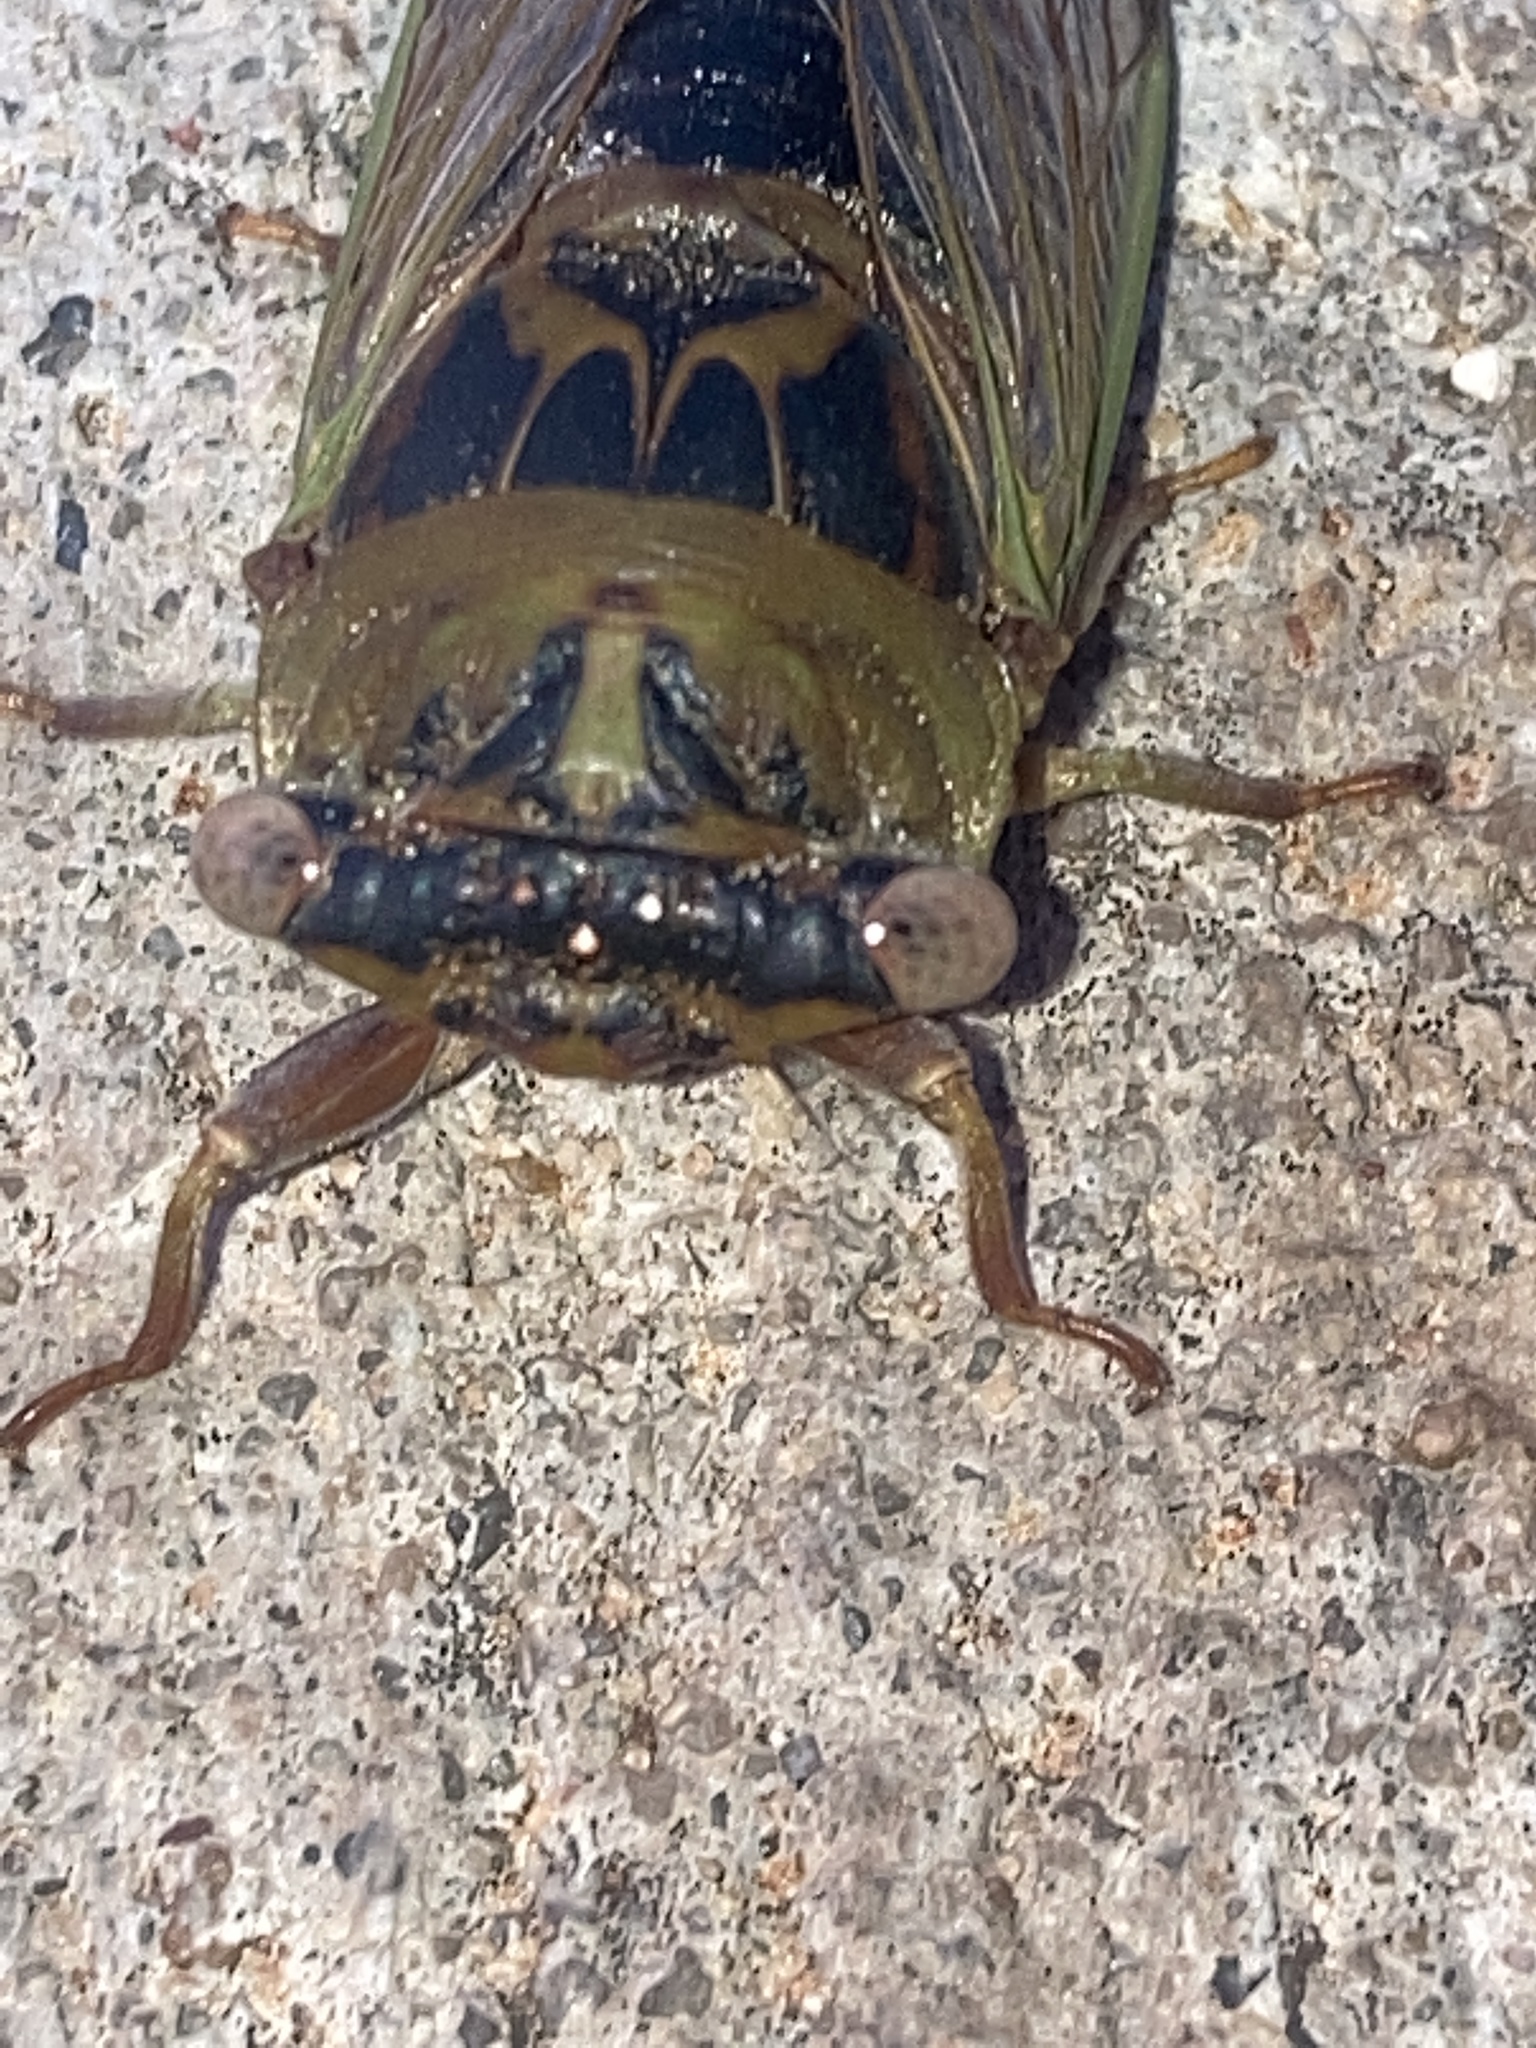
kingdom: Animalia
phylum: Arthropoda
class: Insecta
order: Hemiptera
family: Cicadidae
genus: Neotibicen
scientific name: Neotibicen aurifer
